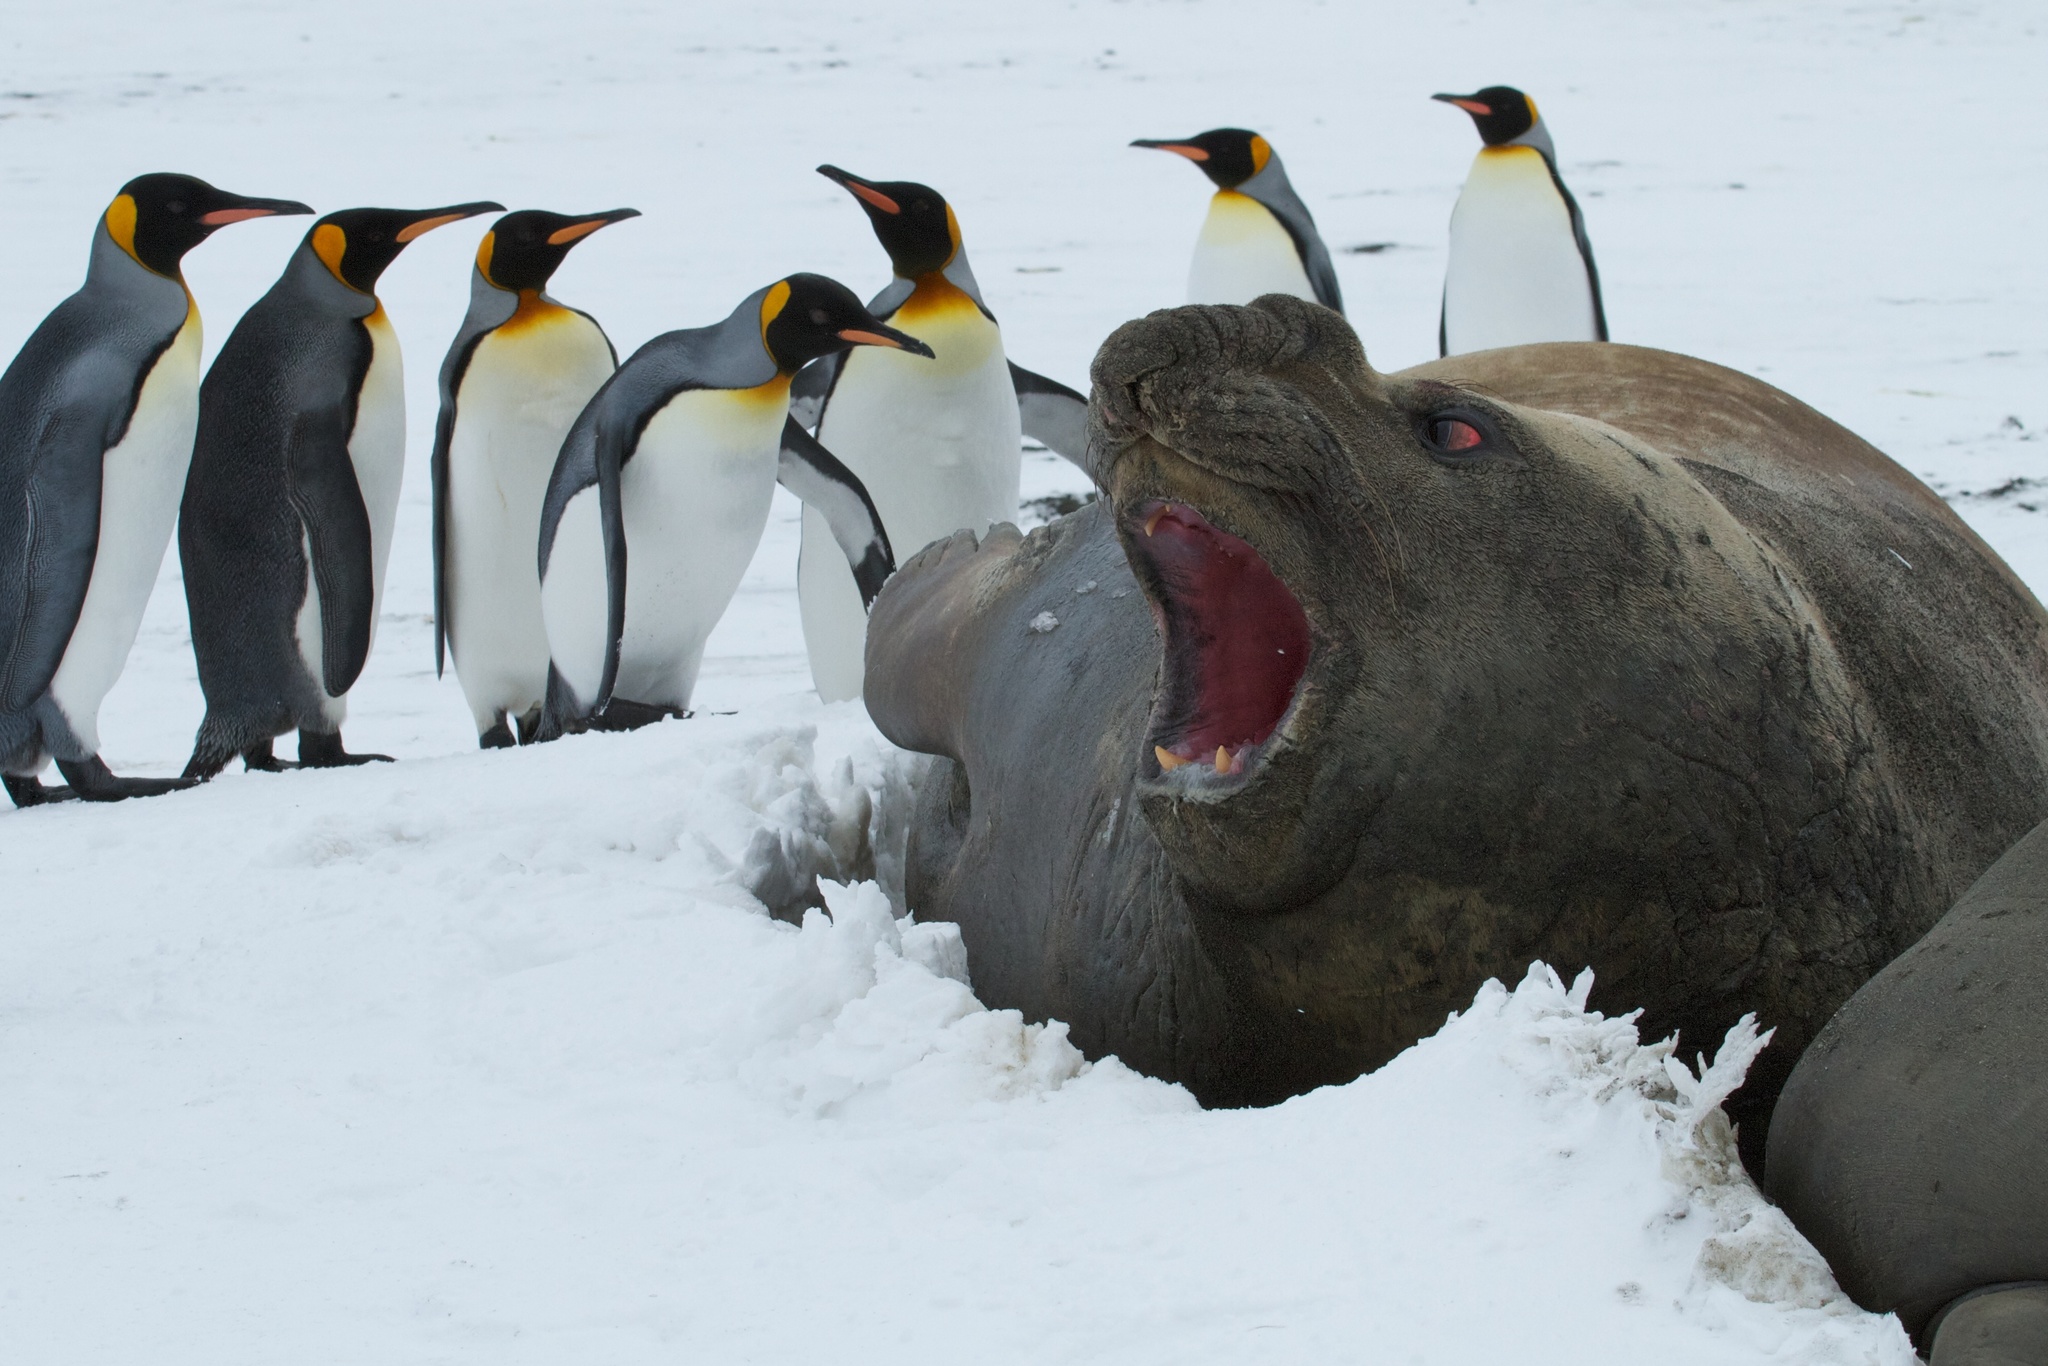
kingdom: Animalia
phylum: Chordata
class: Mammalia
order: Carnivora
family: Phocidae
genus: Mirounga
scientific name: Mirounga leonina
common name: Southern elephant seal
